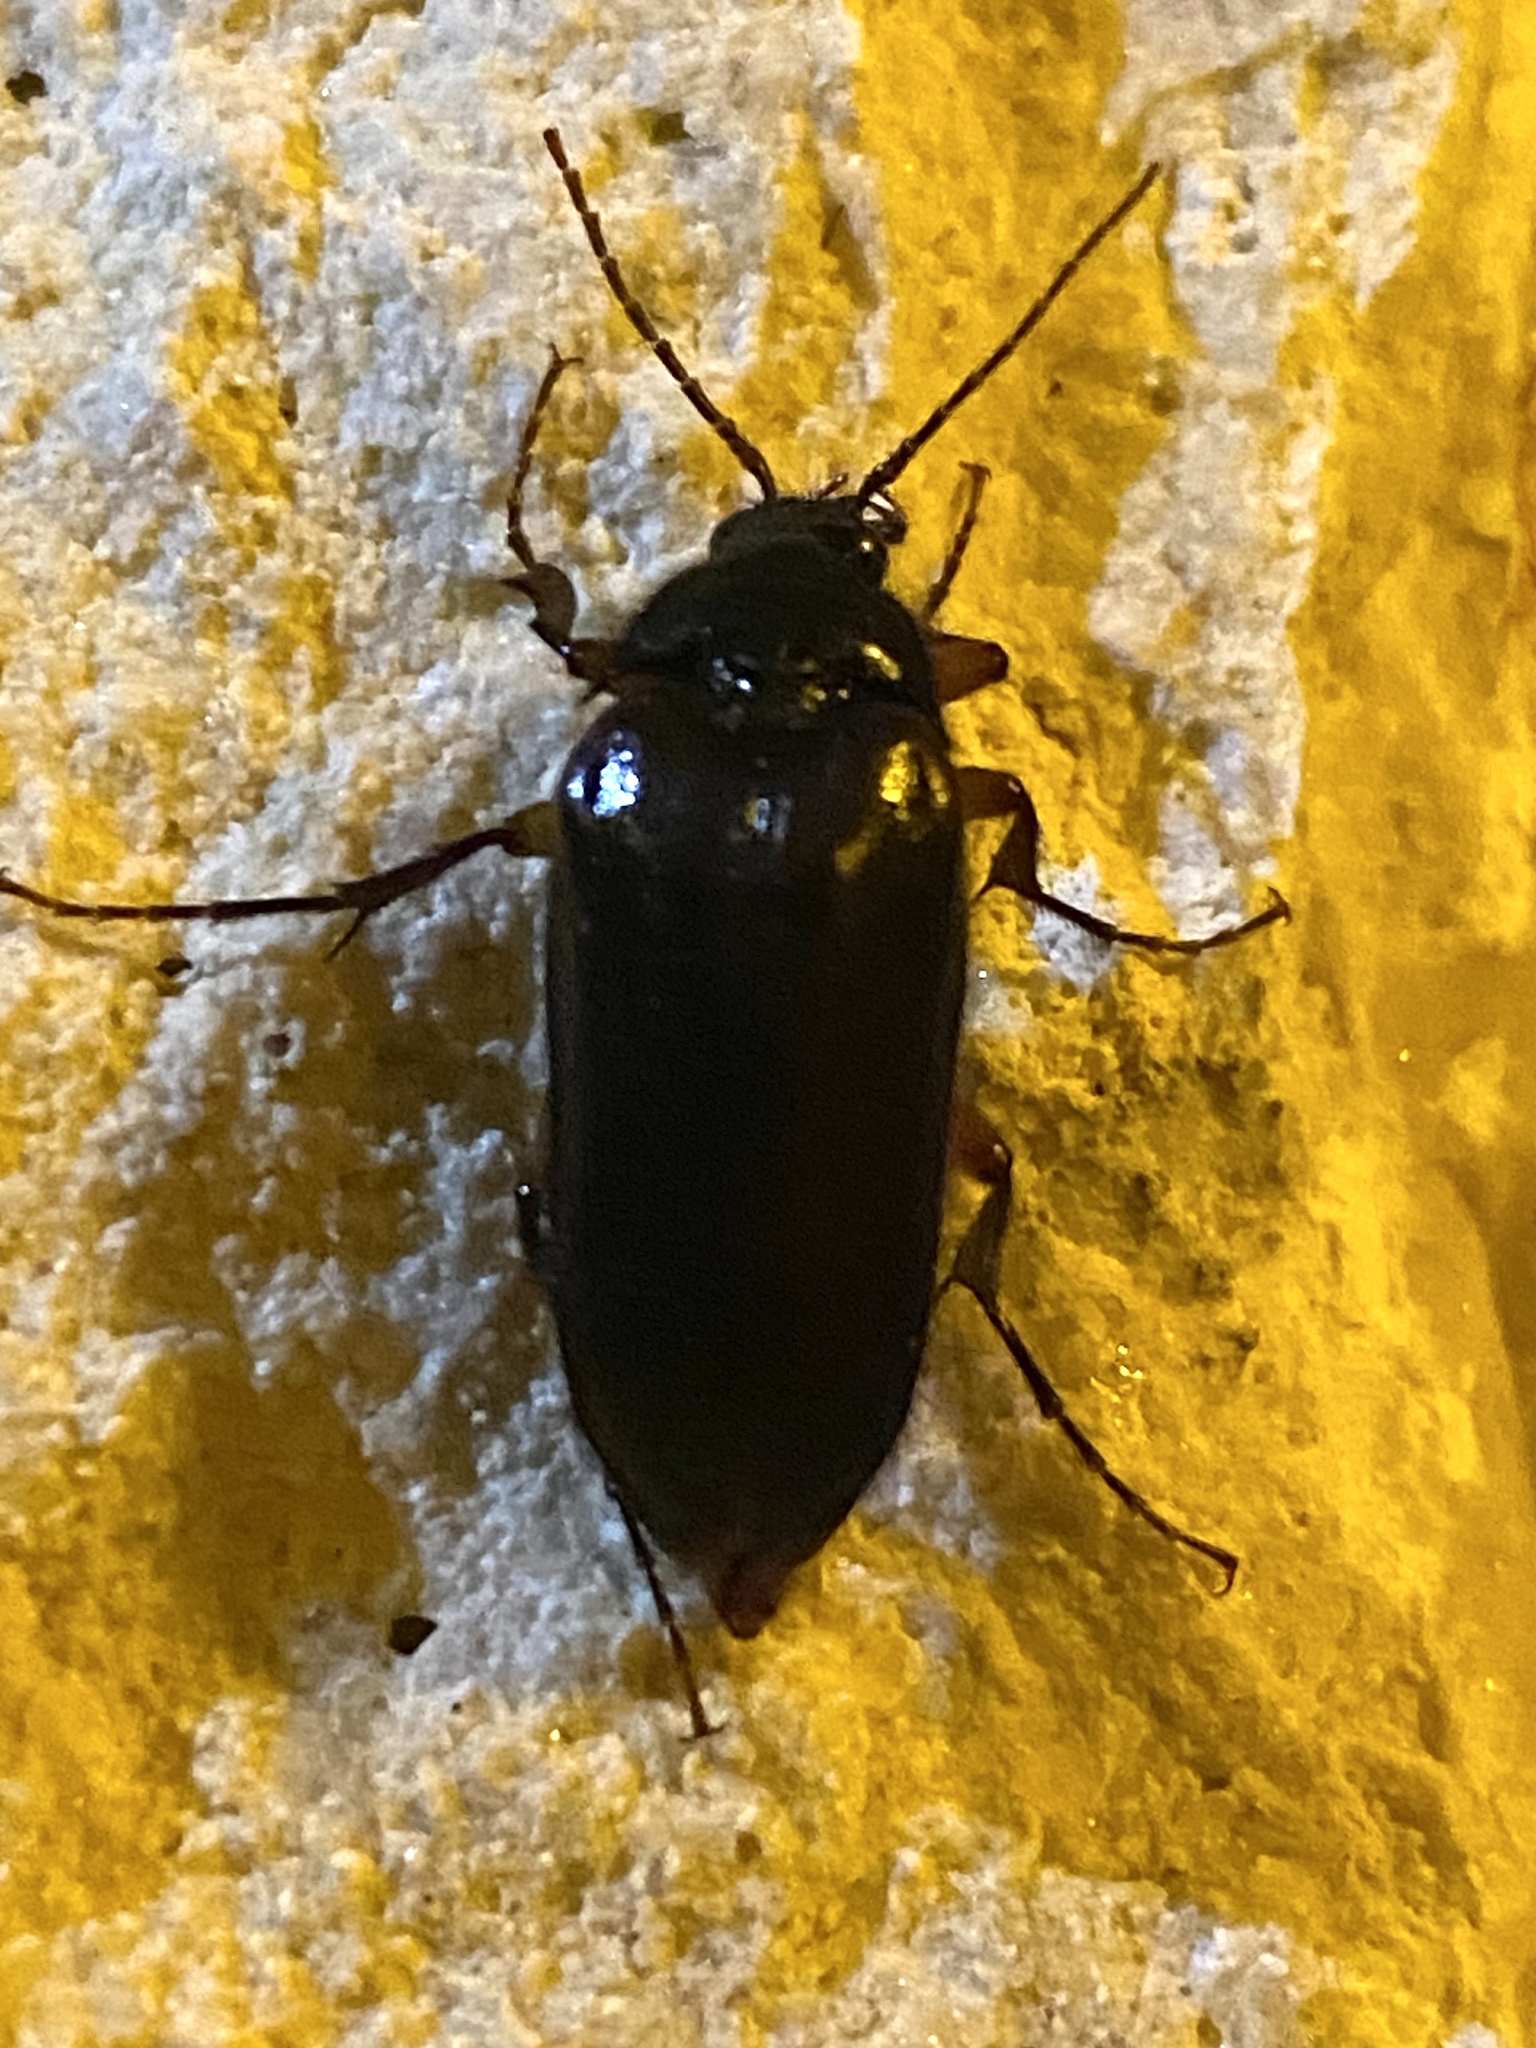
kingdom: Animalia
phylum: Arthropoda
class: Insecta
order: Coleoptera
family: Elateridae
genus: Scaptolenus
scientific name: Scaptolenus
